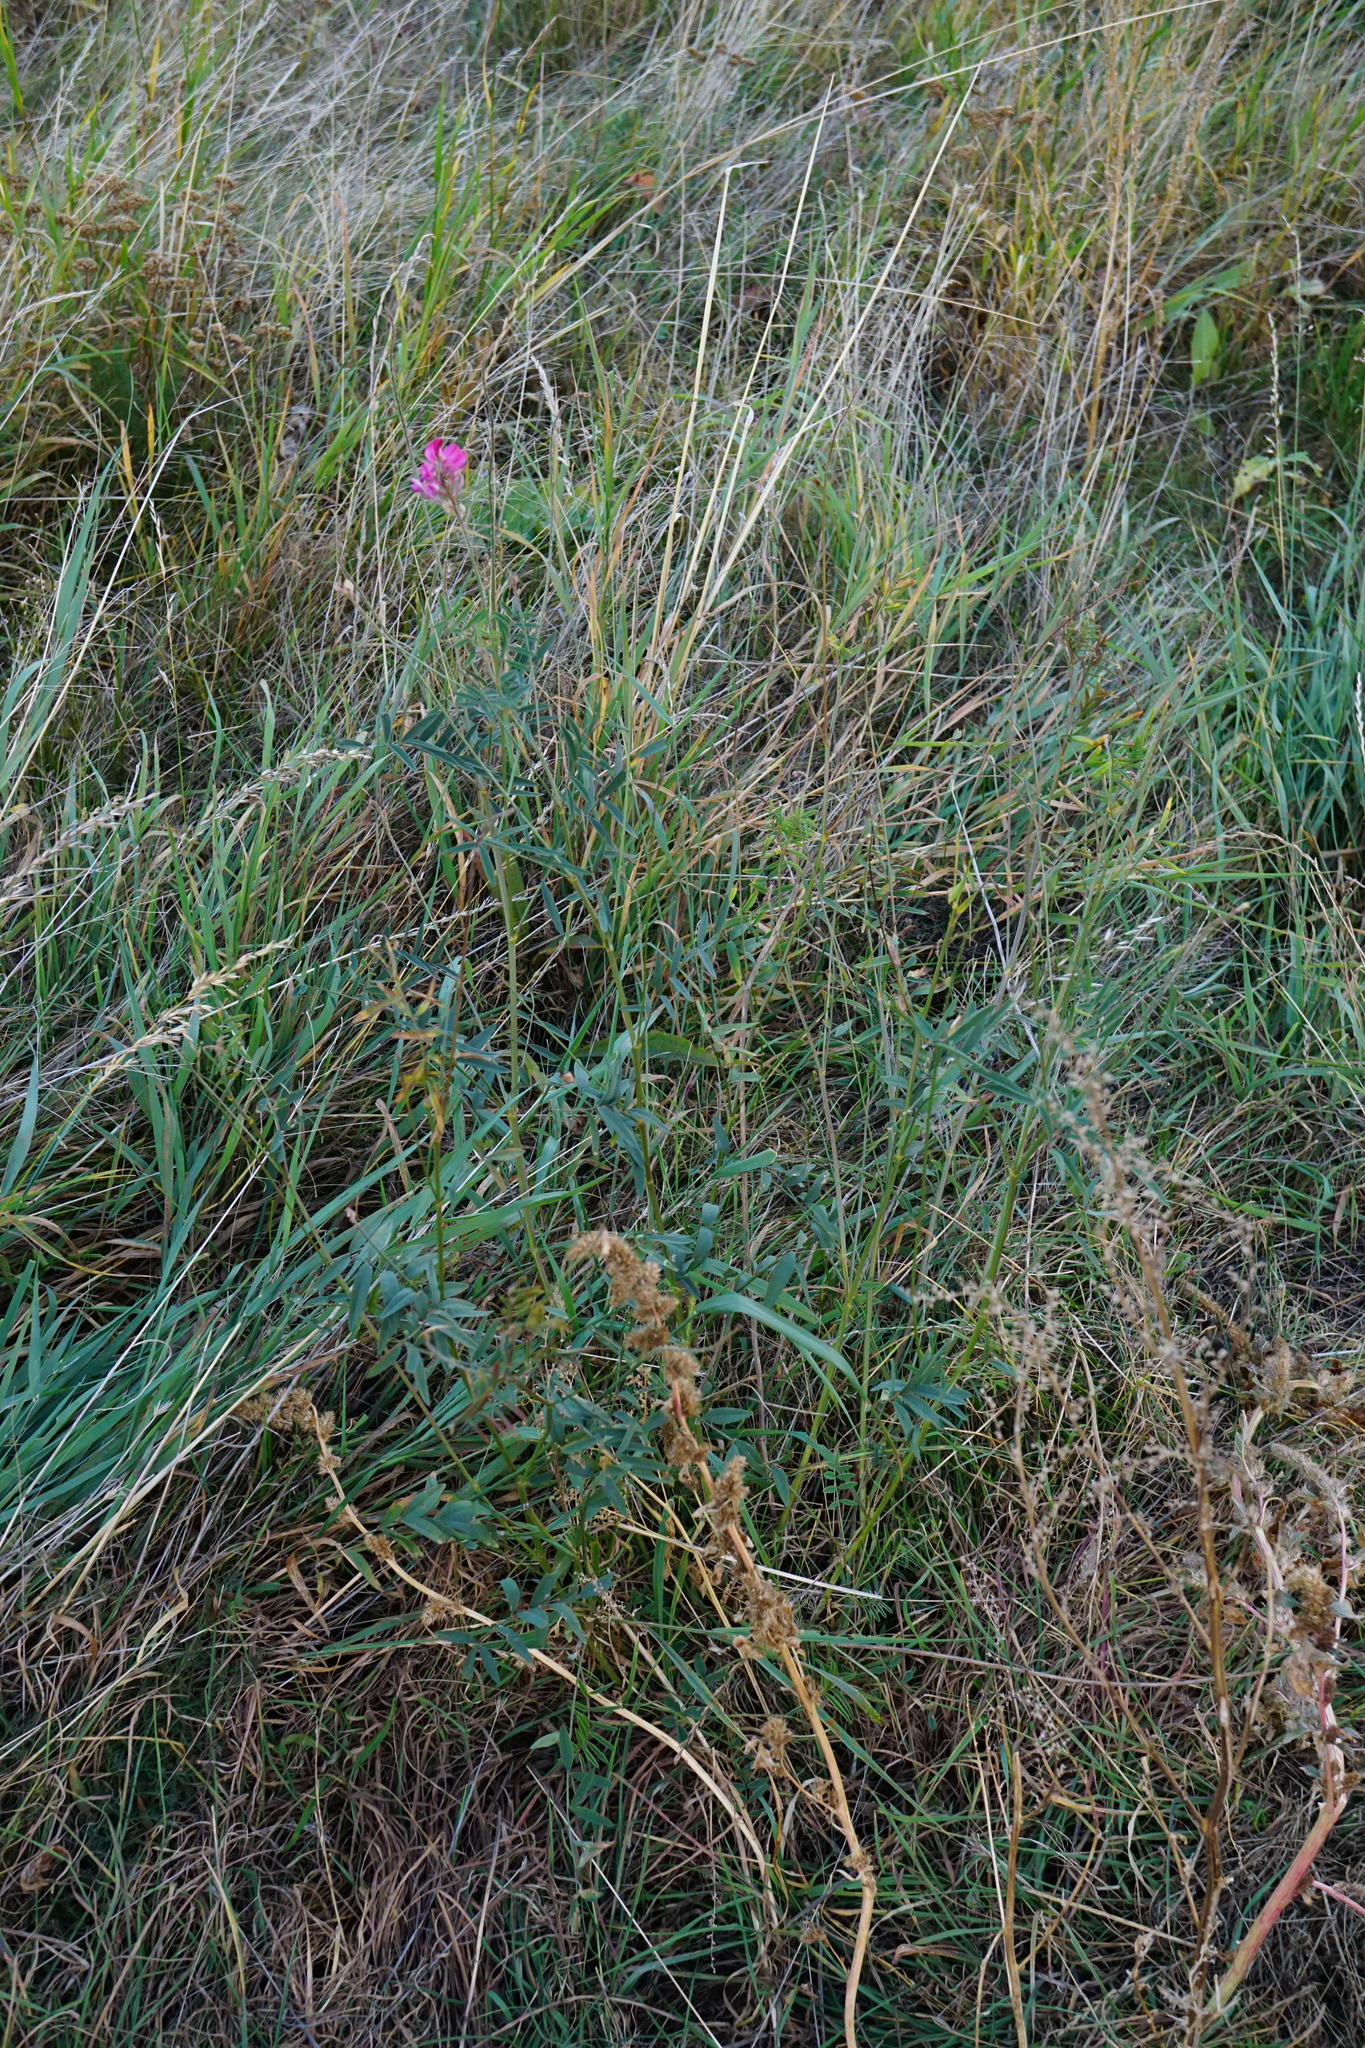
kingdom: Plantae
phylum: Tracheophyta
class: Magnoliopsida
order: Fabales
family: Fabaceae
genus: Onobrychis
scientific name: Onobrychis viciifolia
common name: Sainfoin
